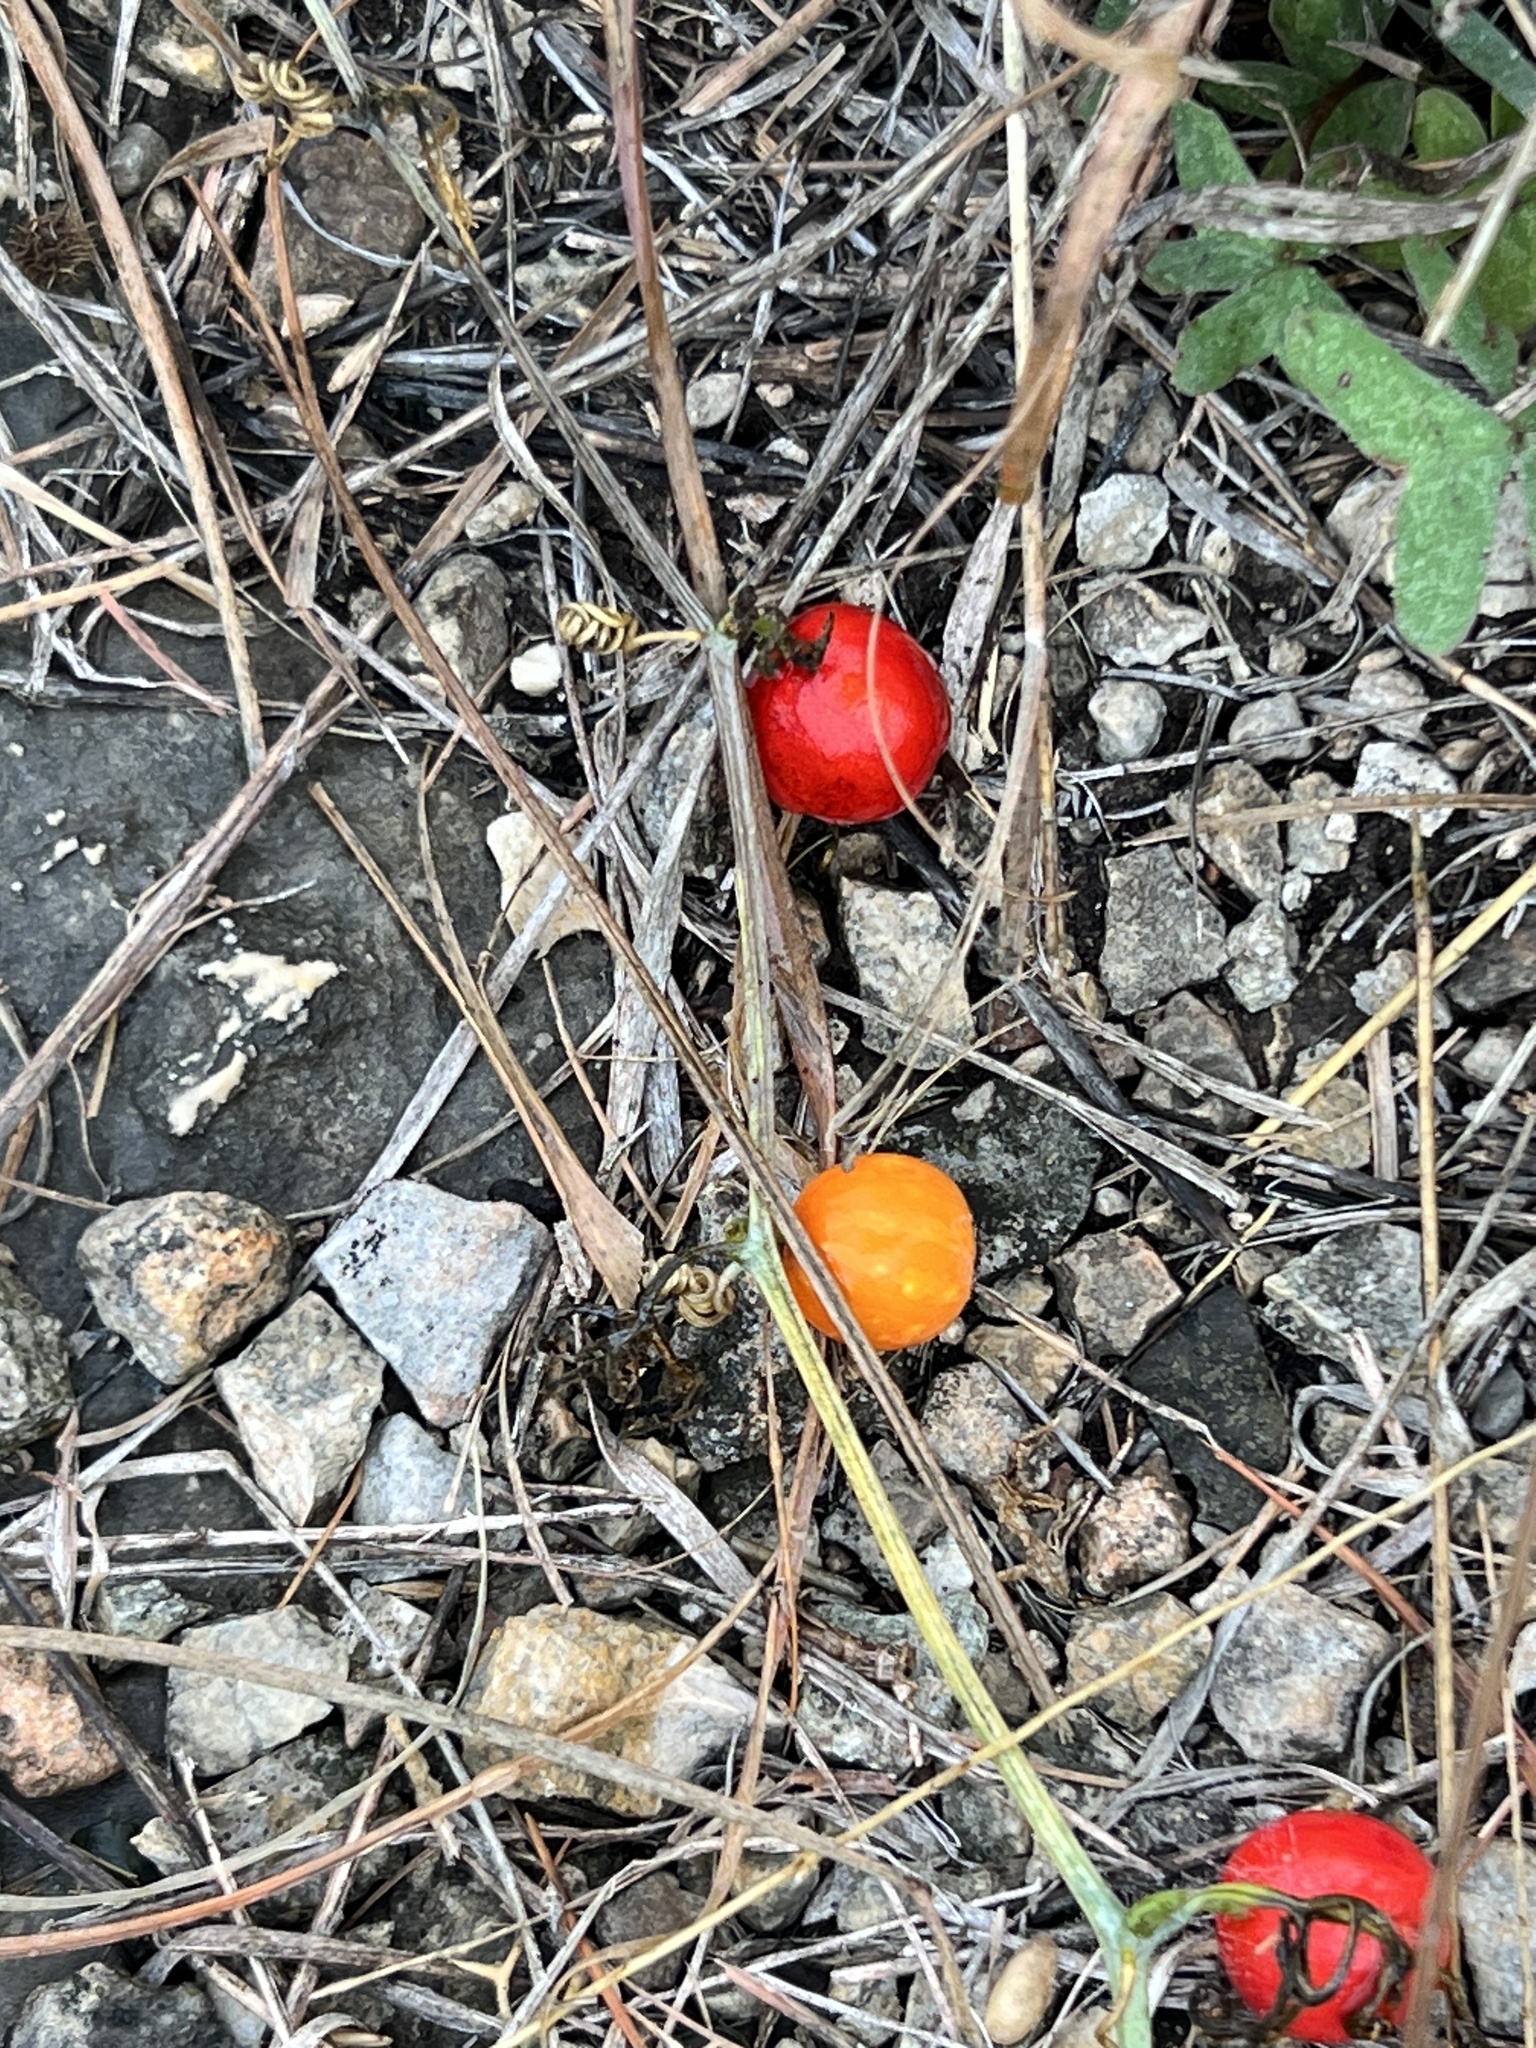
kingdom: Plantae
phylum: Tracheophyta
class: Magnoliopsida
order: Cucurbitales
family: Cucurbitaceae
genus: Ibervillea
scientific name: Ibervillea tenuisecta
